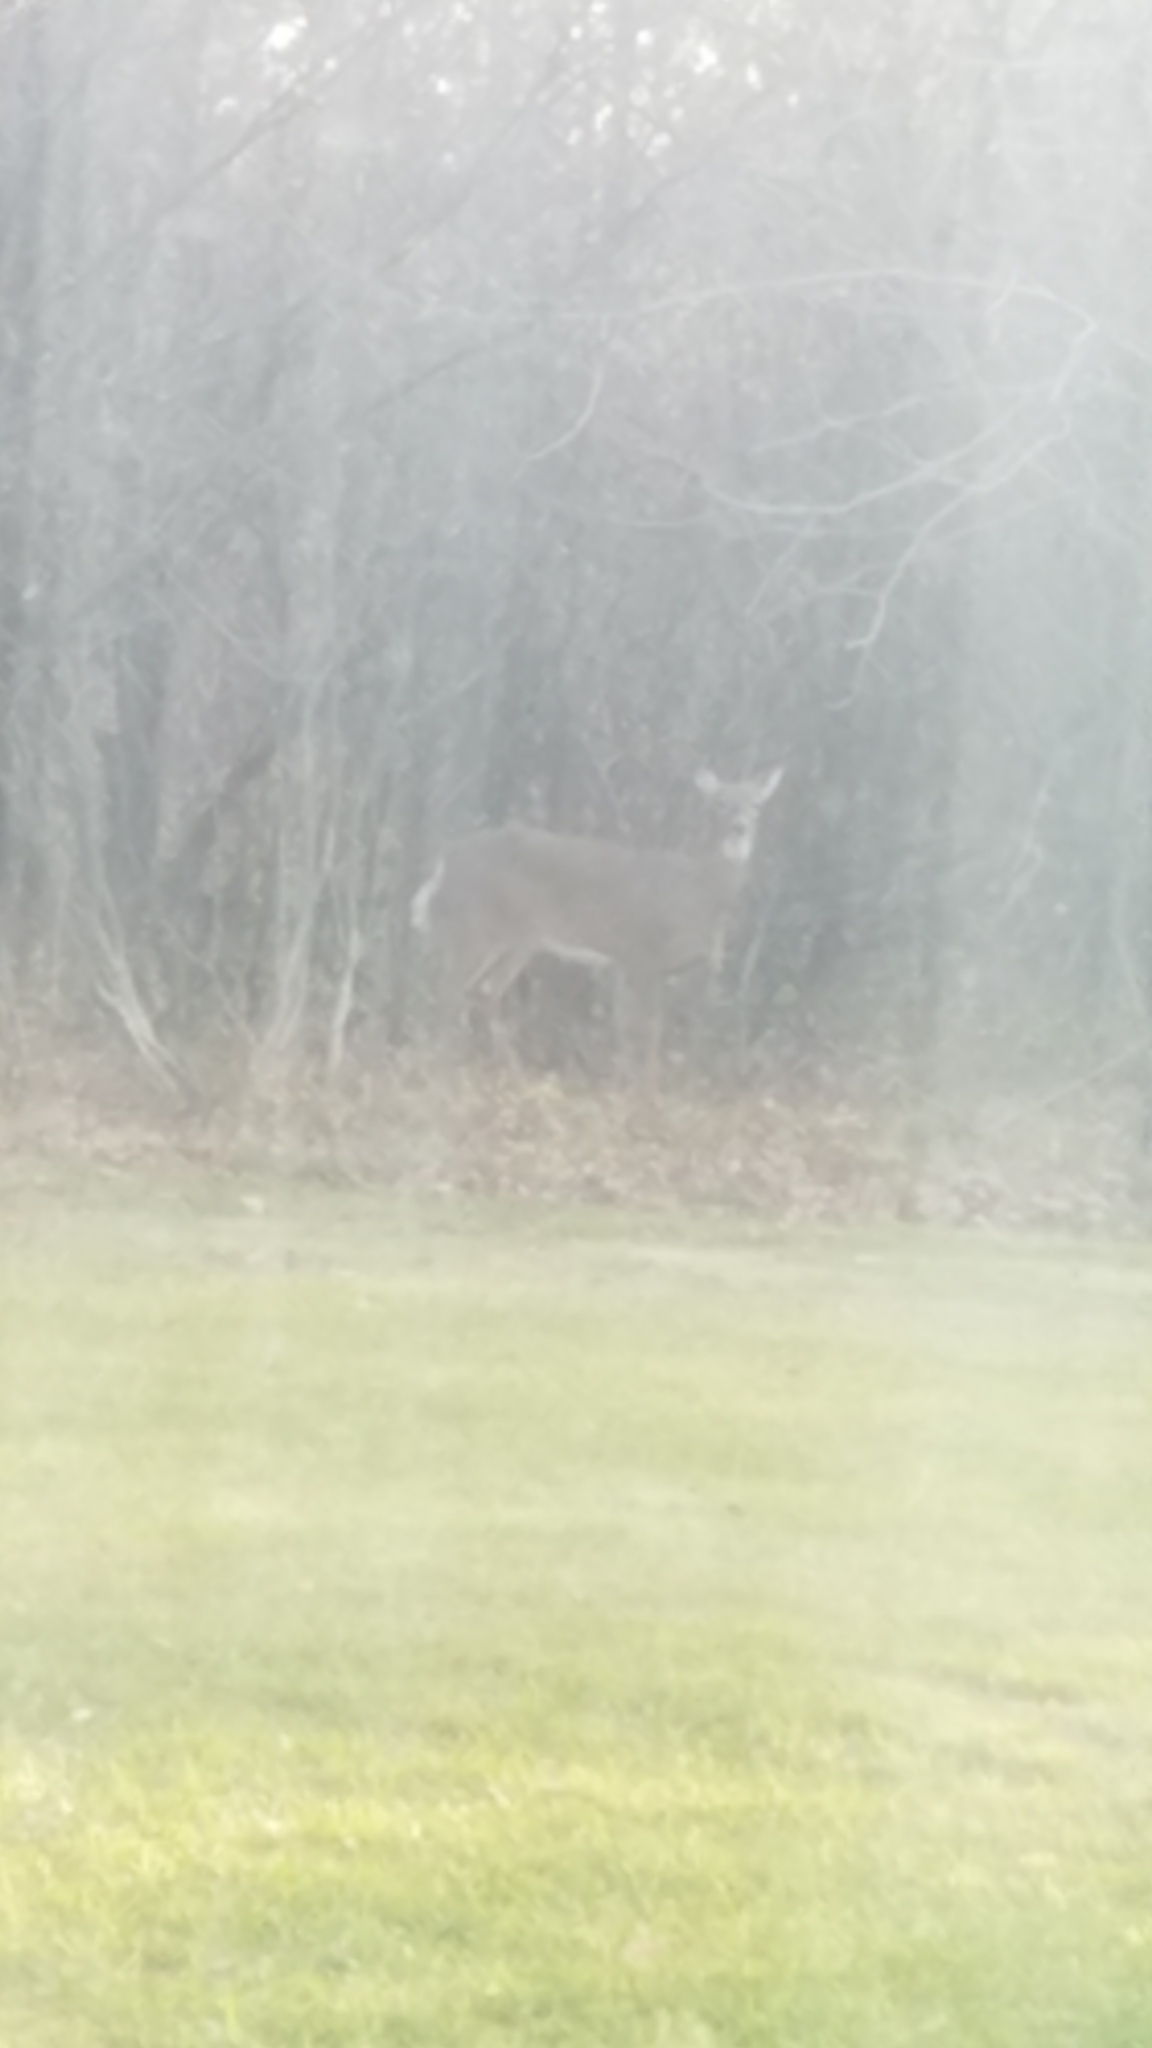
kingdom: Animalia
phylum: Chordata
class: Mammalia
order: Artiodactyla
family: Cervidae
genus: Odocoileus
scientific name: Odocoileus virginianus
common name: White-tailed deer
